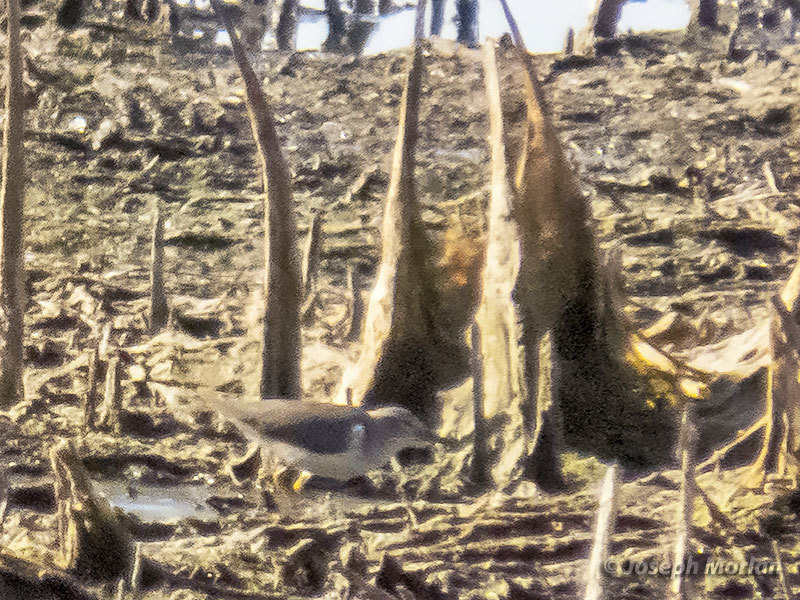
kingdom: Animalia
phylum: Chordata
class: Aves
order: Charadriiformes
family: Scolopacidae
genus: Actitis
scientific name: Actitis macularius
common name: Spotted sandpiper
